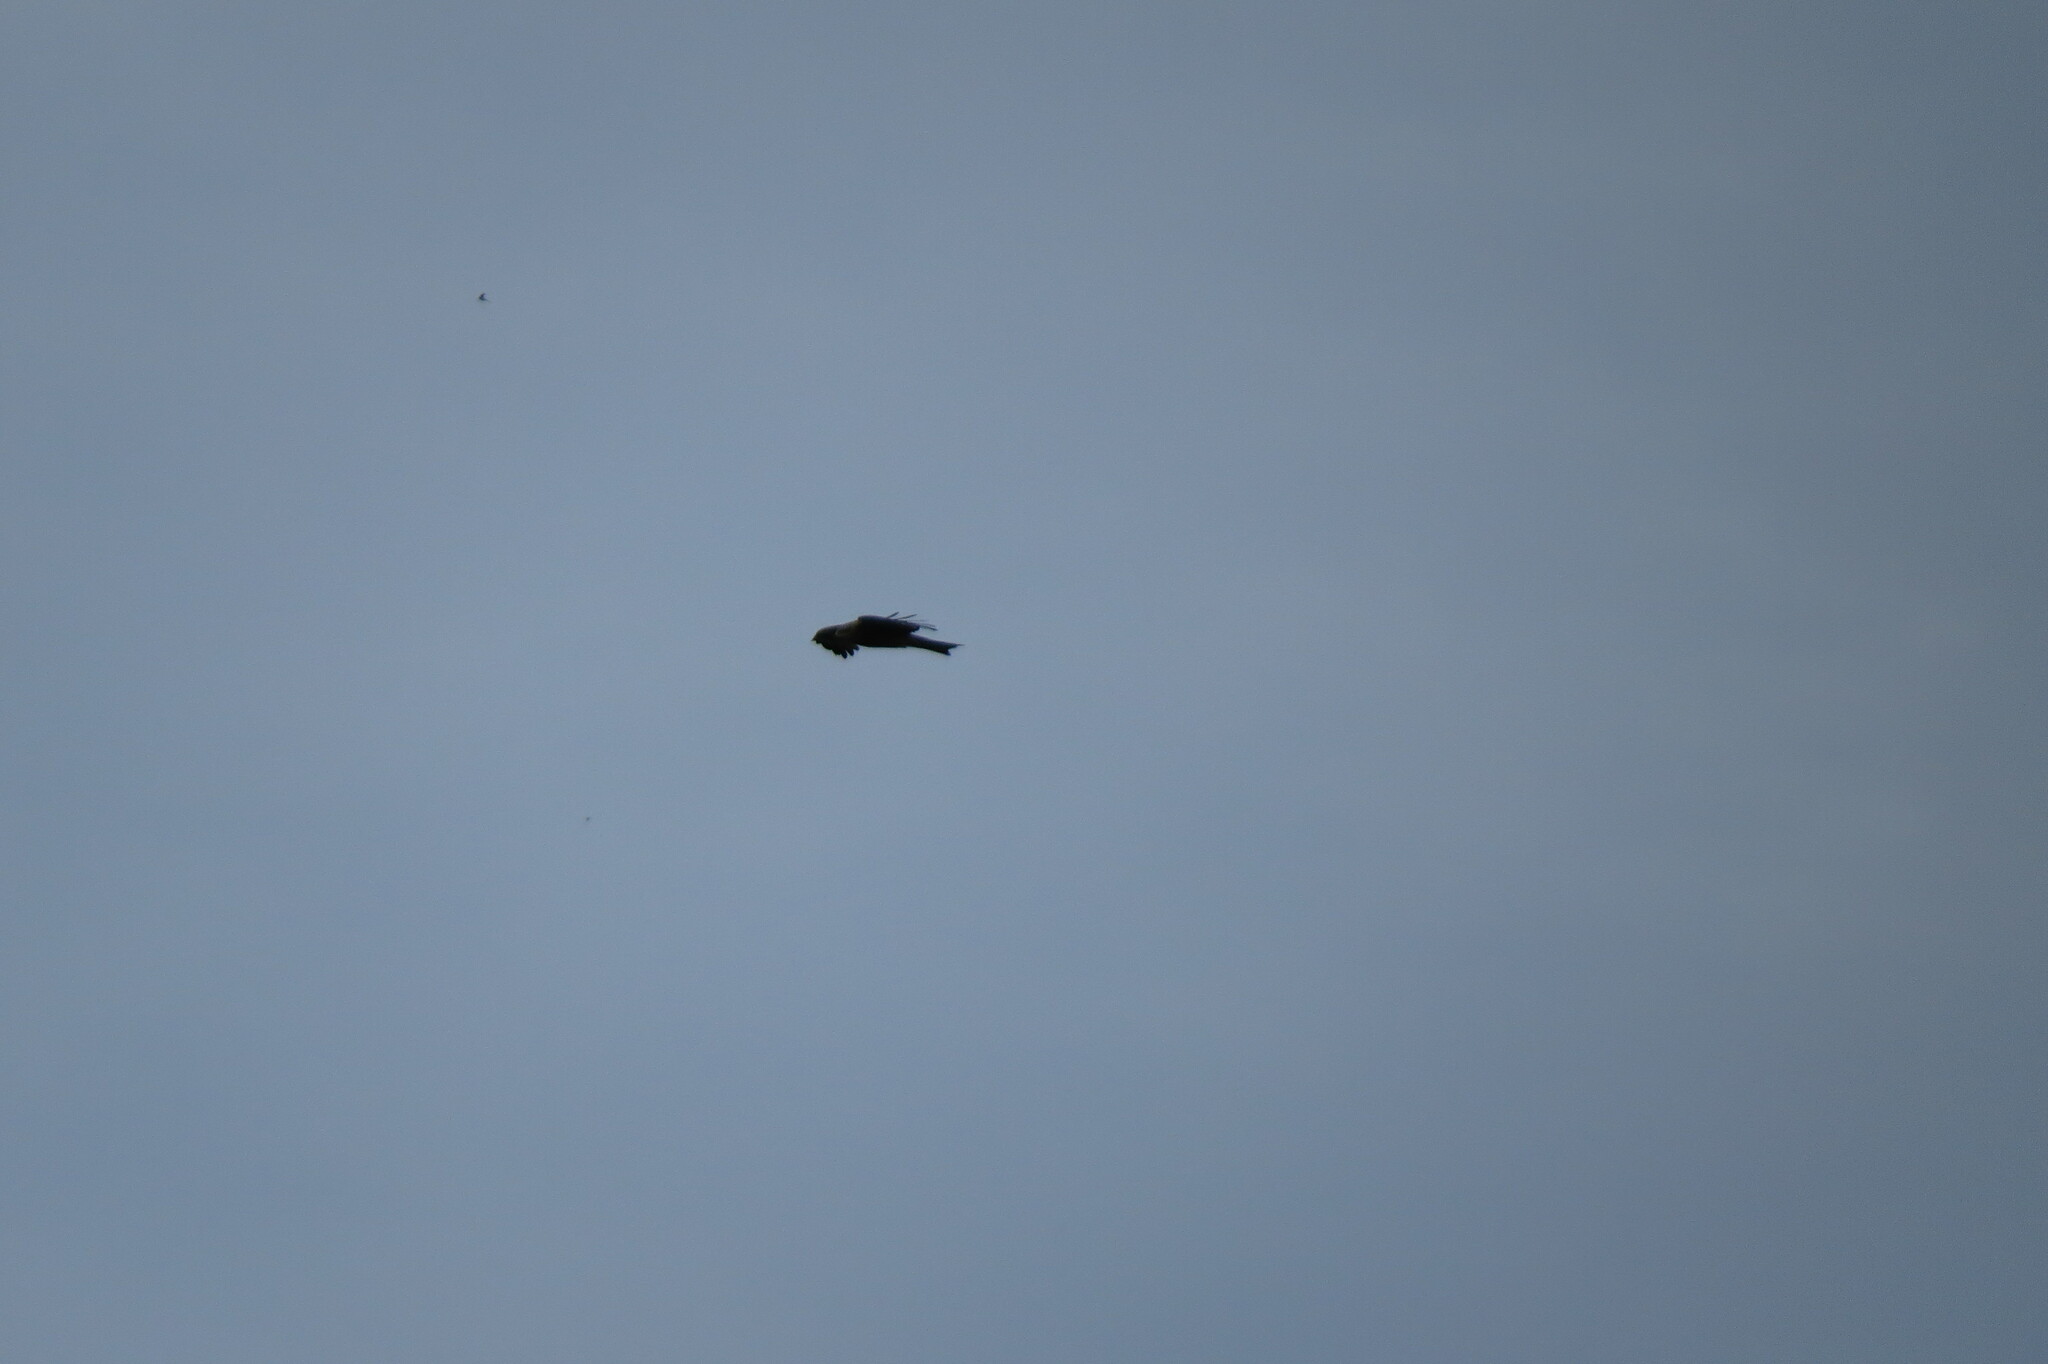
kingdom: Animalia
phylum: Chordata
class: Aves
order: Accipitriformes
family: Accipitridae
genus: Milvus
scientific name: Milvus migrans
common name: Black kite
